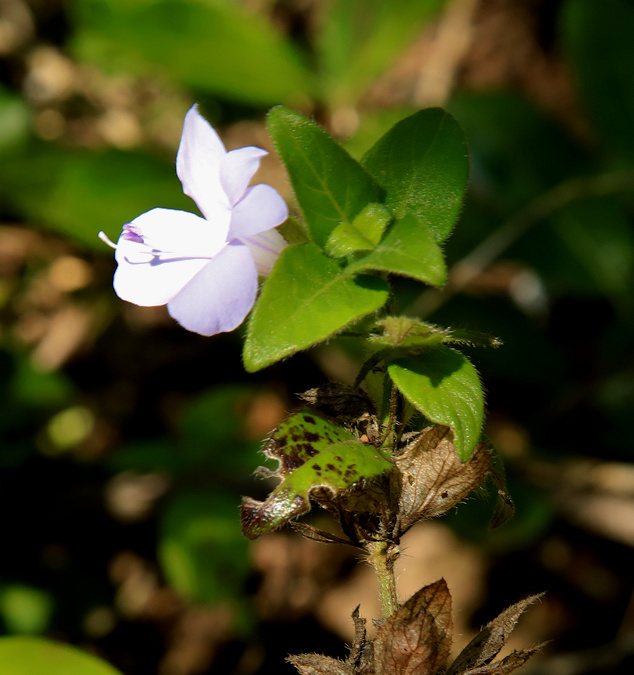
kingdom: Plantae
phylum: Tracheophyta
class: Magnoliopsida
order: Lamiales
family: Acanthaceae
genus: Barleria
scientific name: Barleria gueinzii
